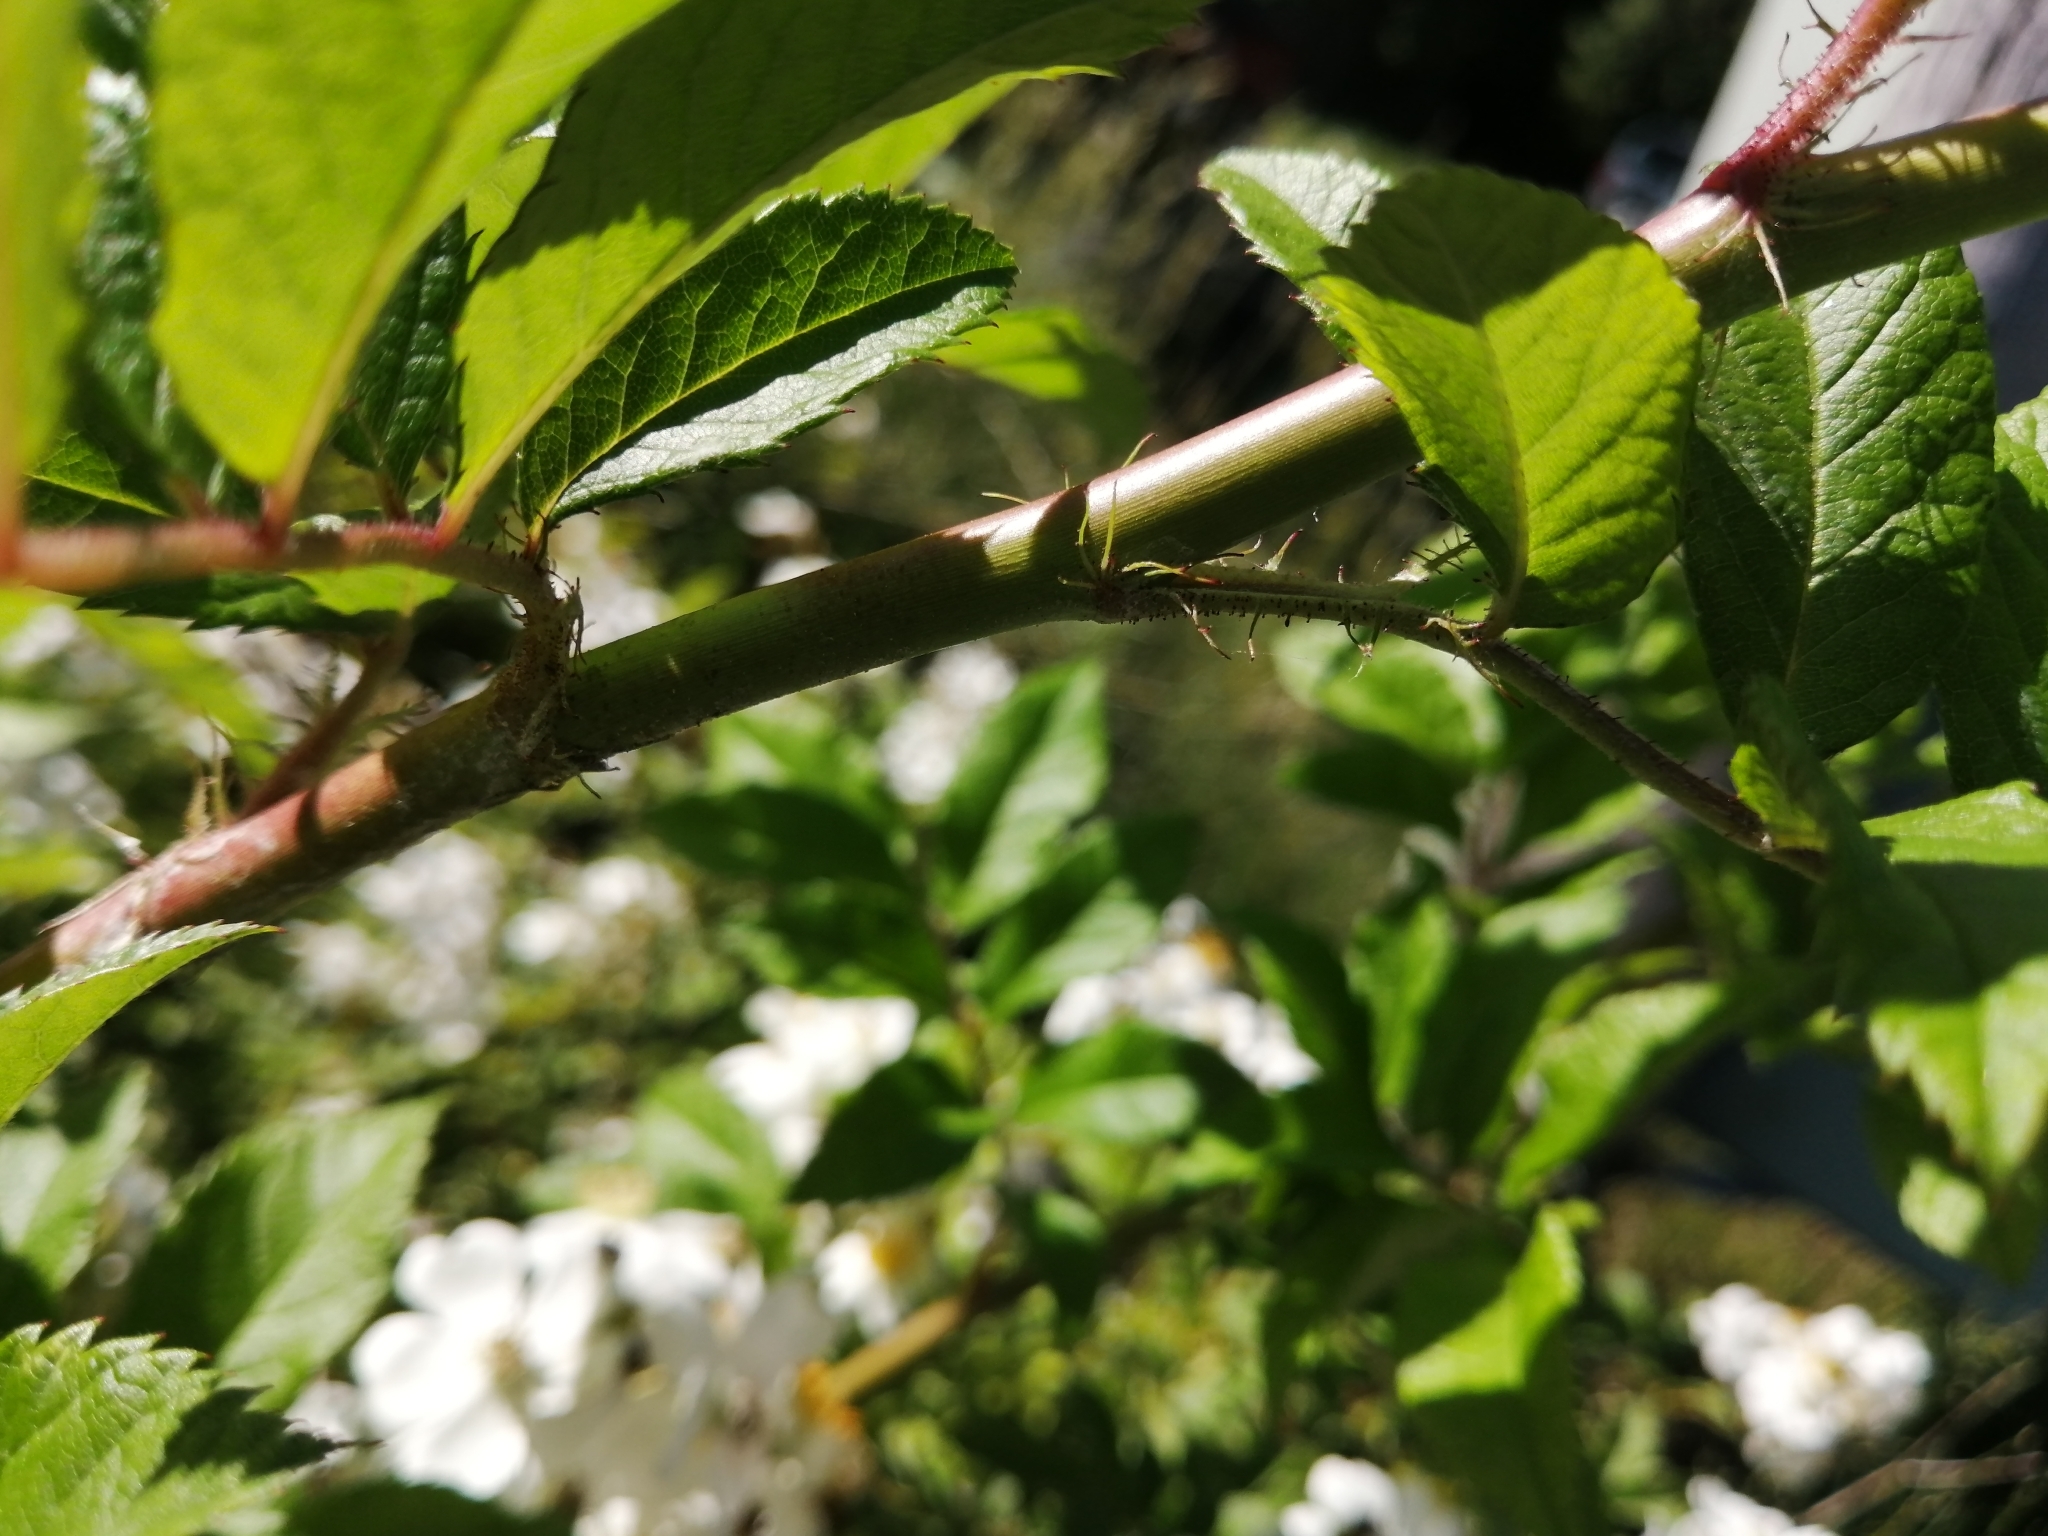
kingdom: Plantae
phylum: Tracheophyta
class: Magnoliopsida
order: Rosales
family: Rosaceae
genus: Rosa
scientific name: Rosa multiflora
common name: Multiflora rose
